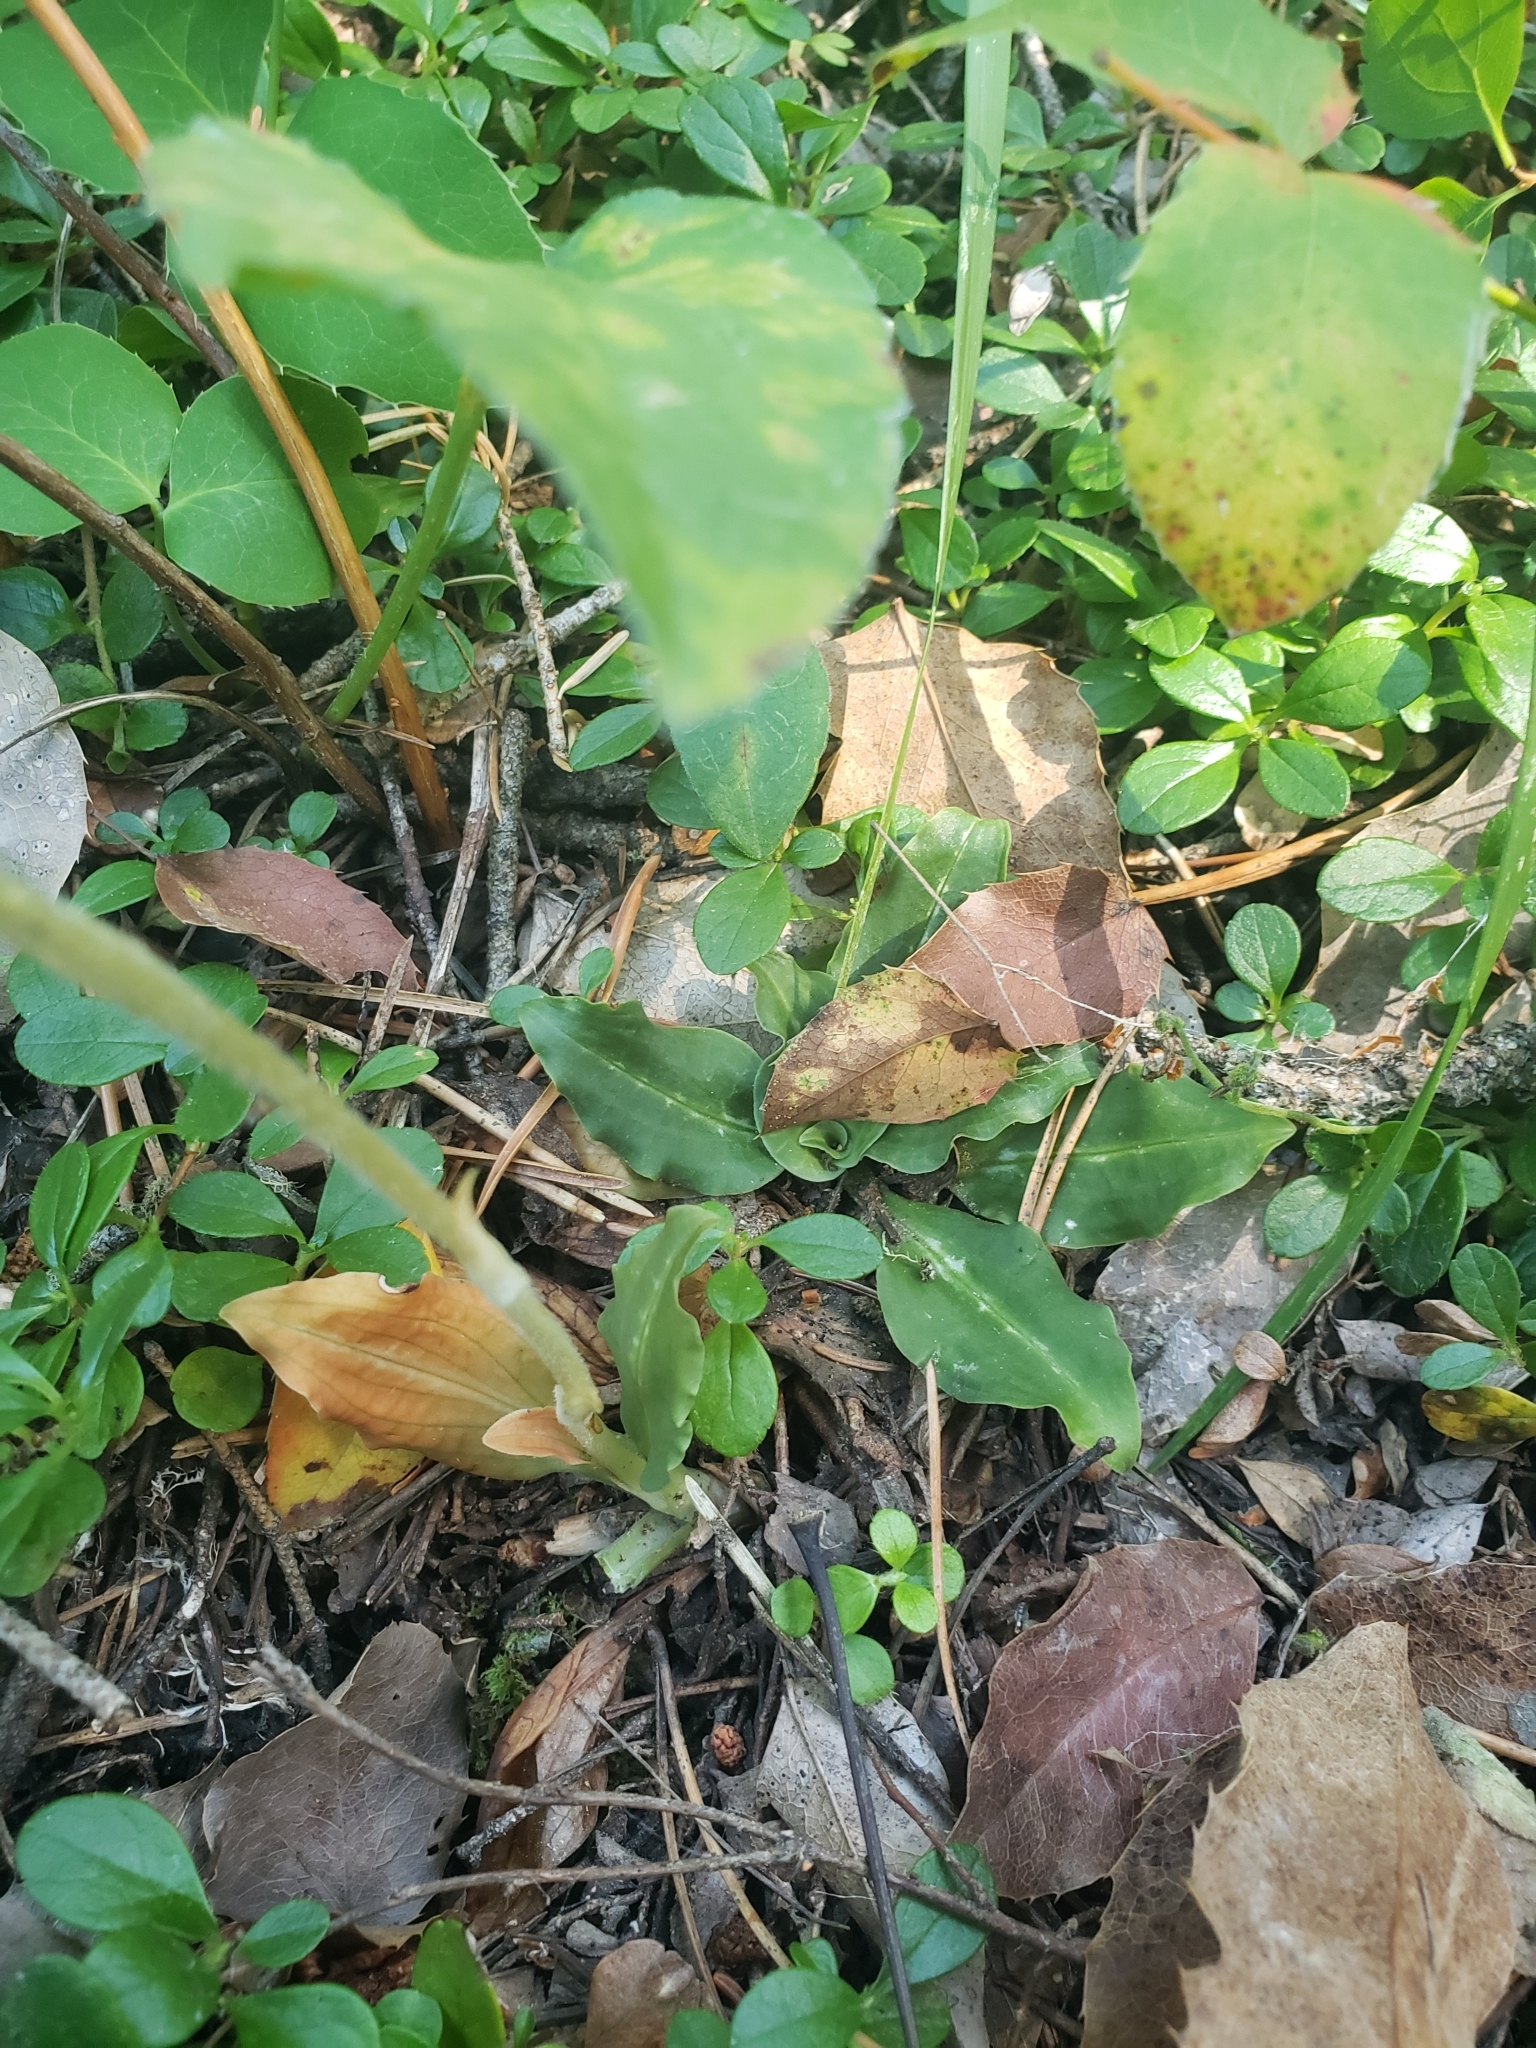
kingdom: Plantae
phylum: Tracheophyta
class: Liliopsida
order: Asparagales
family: Orchidaceae
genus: Goodyera
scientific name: Goodyera oblongifolia
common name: Giant rattlesnake-plantain
